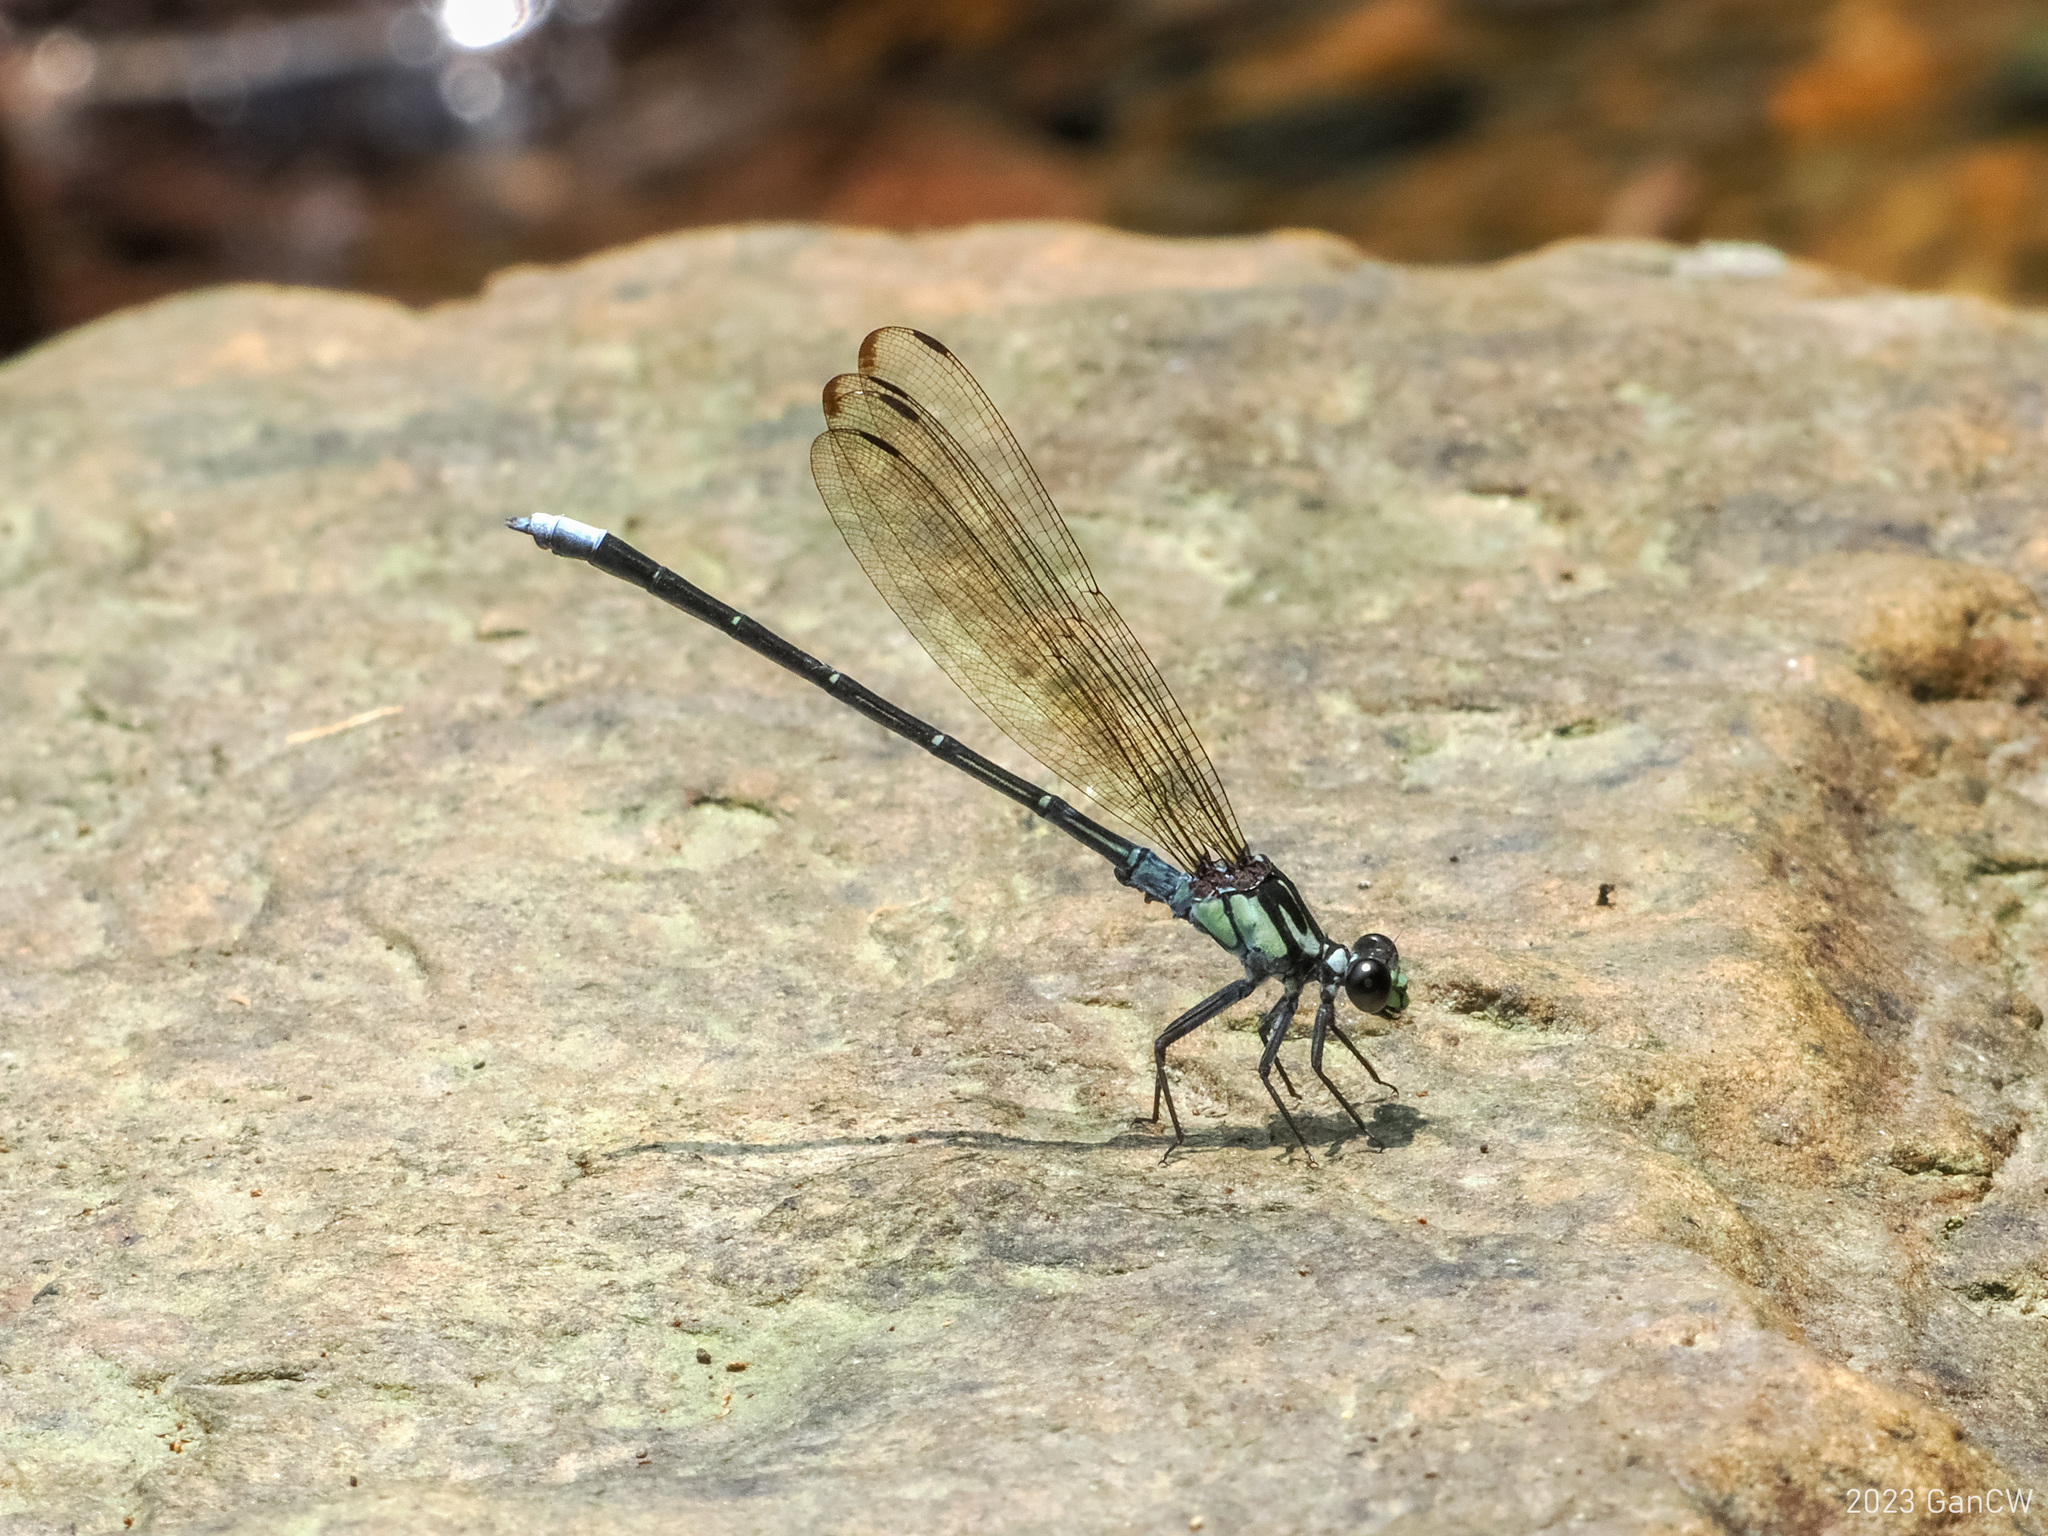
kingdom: Animalia
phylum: Arthropoda
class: Insecta
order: Odonata
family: Euphaeidae
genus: Anisopleura
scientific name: Anisopleura comes
